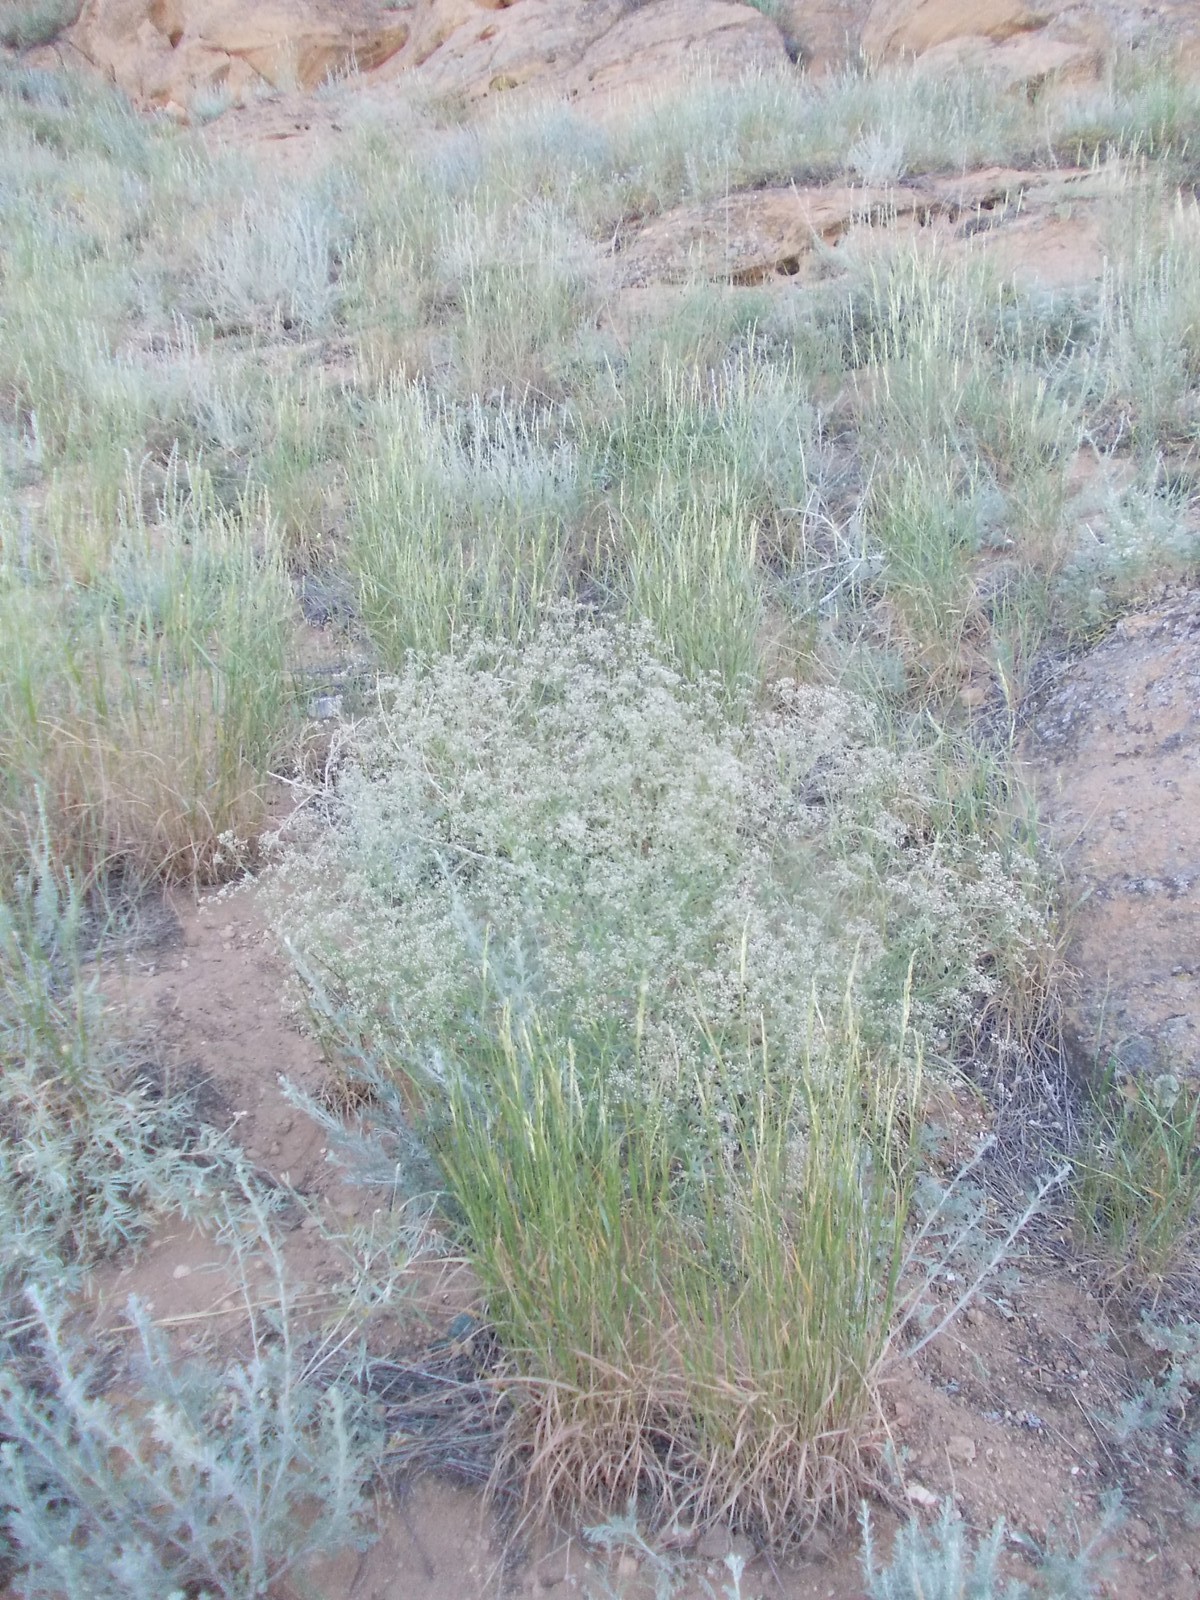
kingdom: Plantae
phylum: Tracheophyta
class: Magnoliopsida
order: Caryophyllales
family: Caryophyllaceae
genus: Gypsophila
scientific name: Gypsophila paniculata
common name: Baby's-breath
